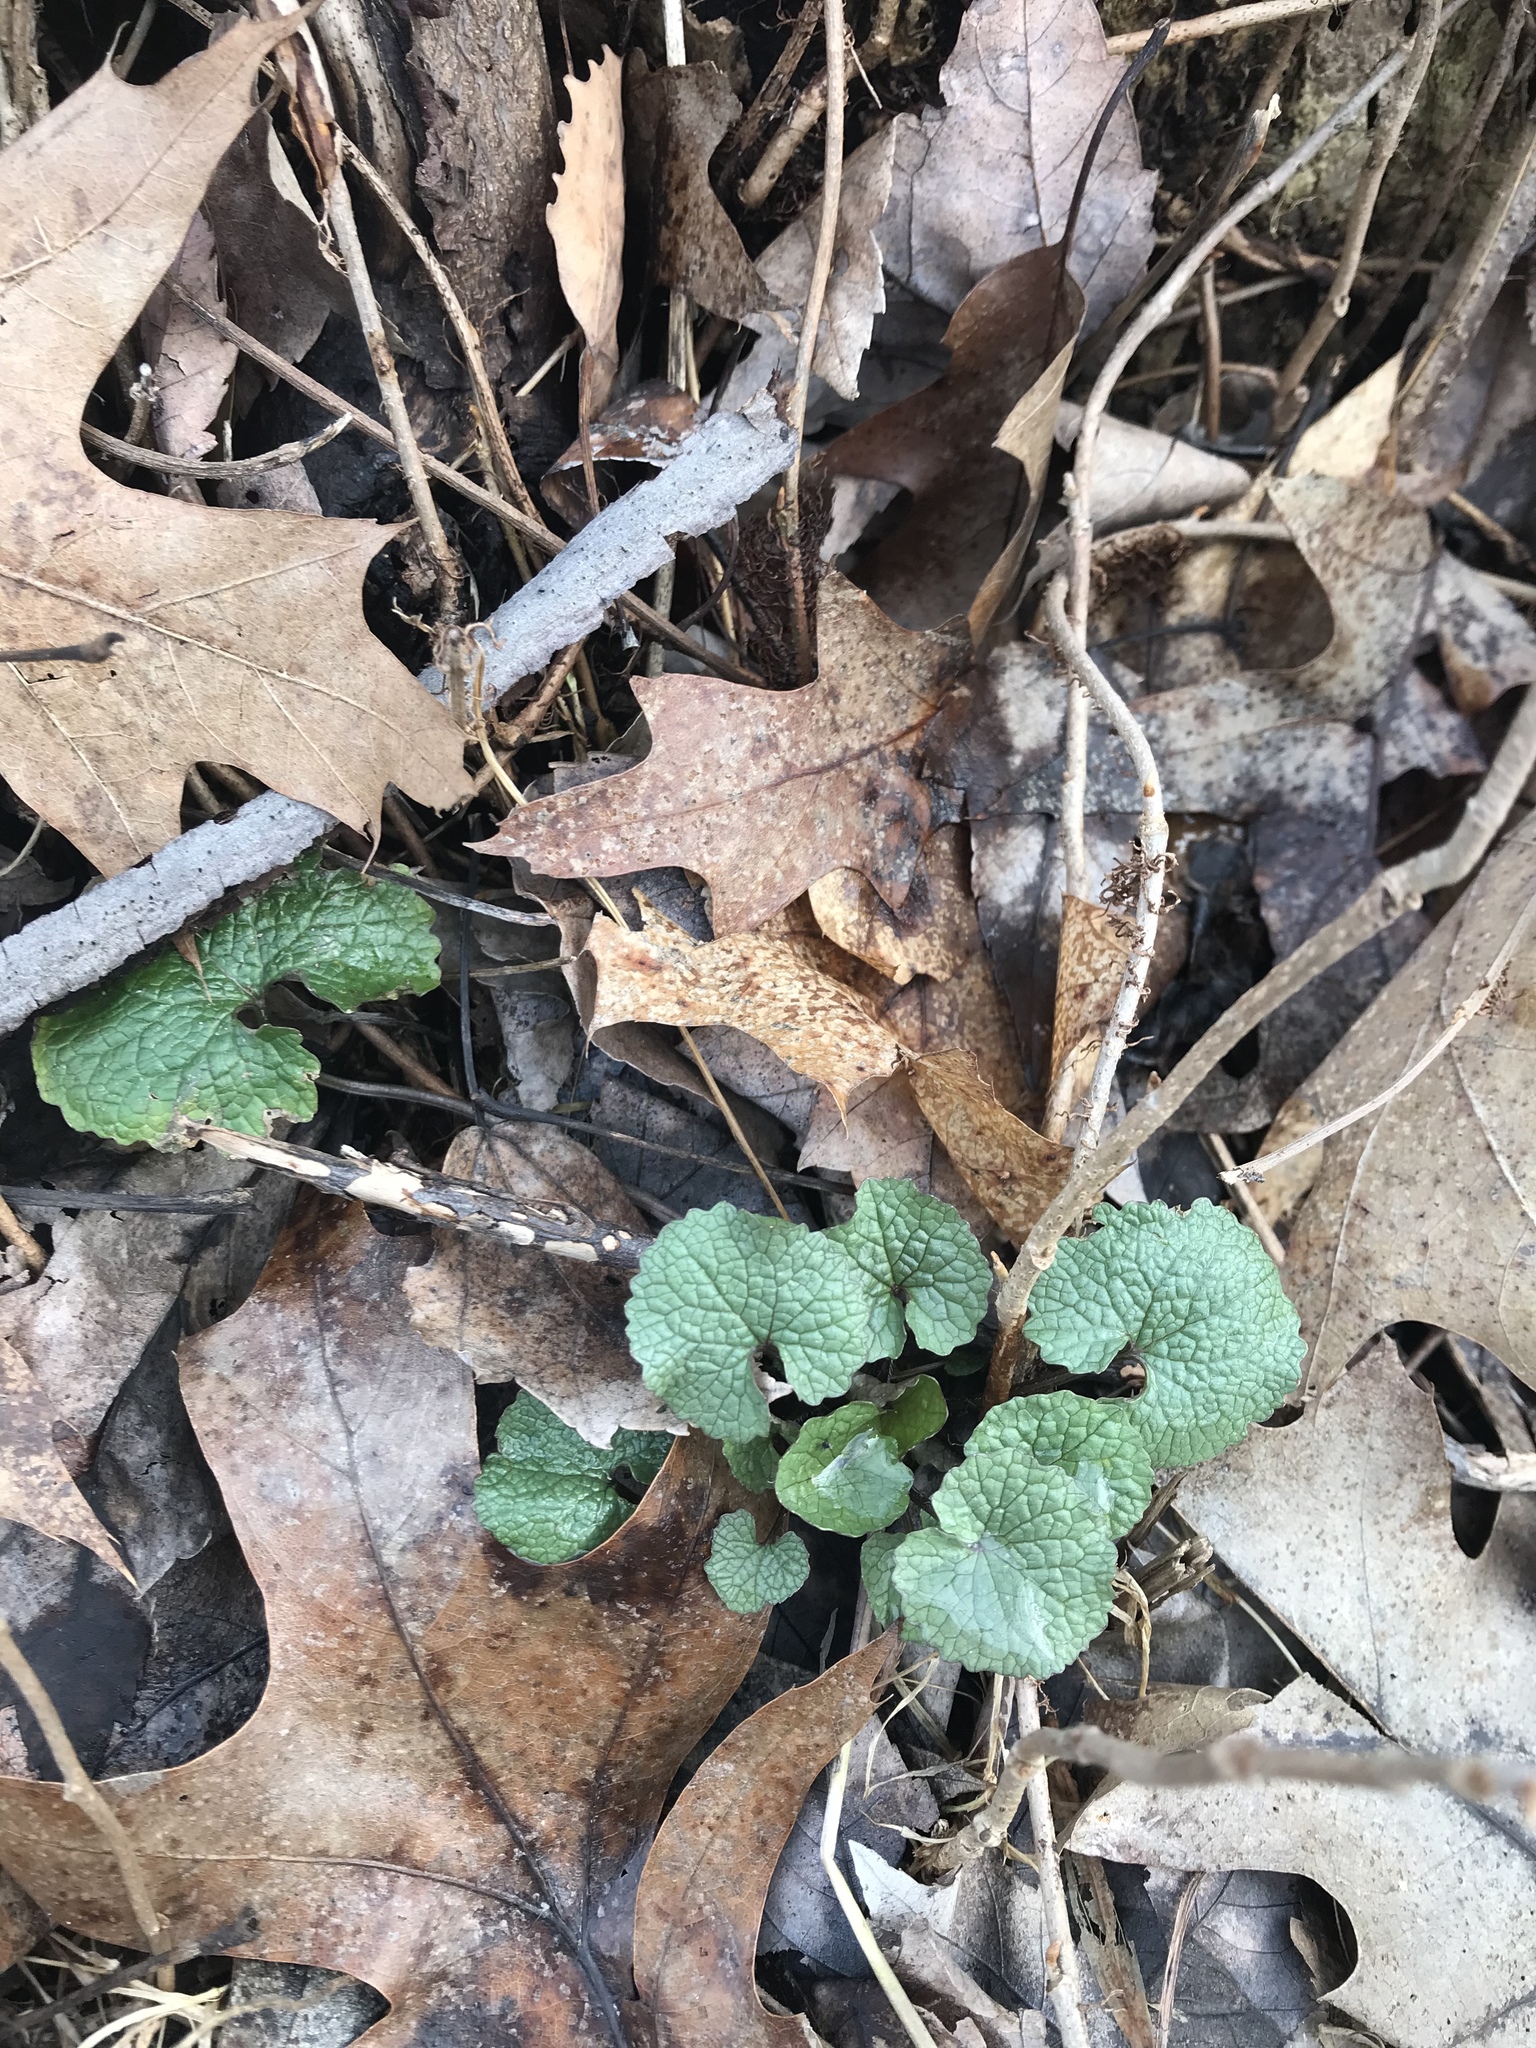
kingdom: Plantae
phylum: Tracheophyta
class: Magnoliopsida
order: Brassicales
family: Brassicaceae
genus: Alliaria
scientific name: Alliaria petiolata
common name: Garlic mustard
